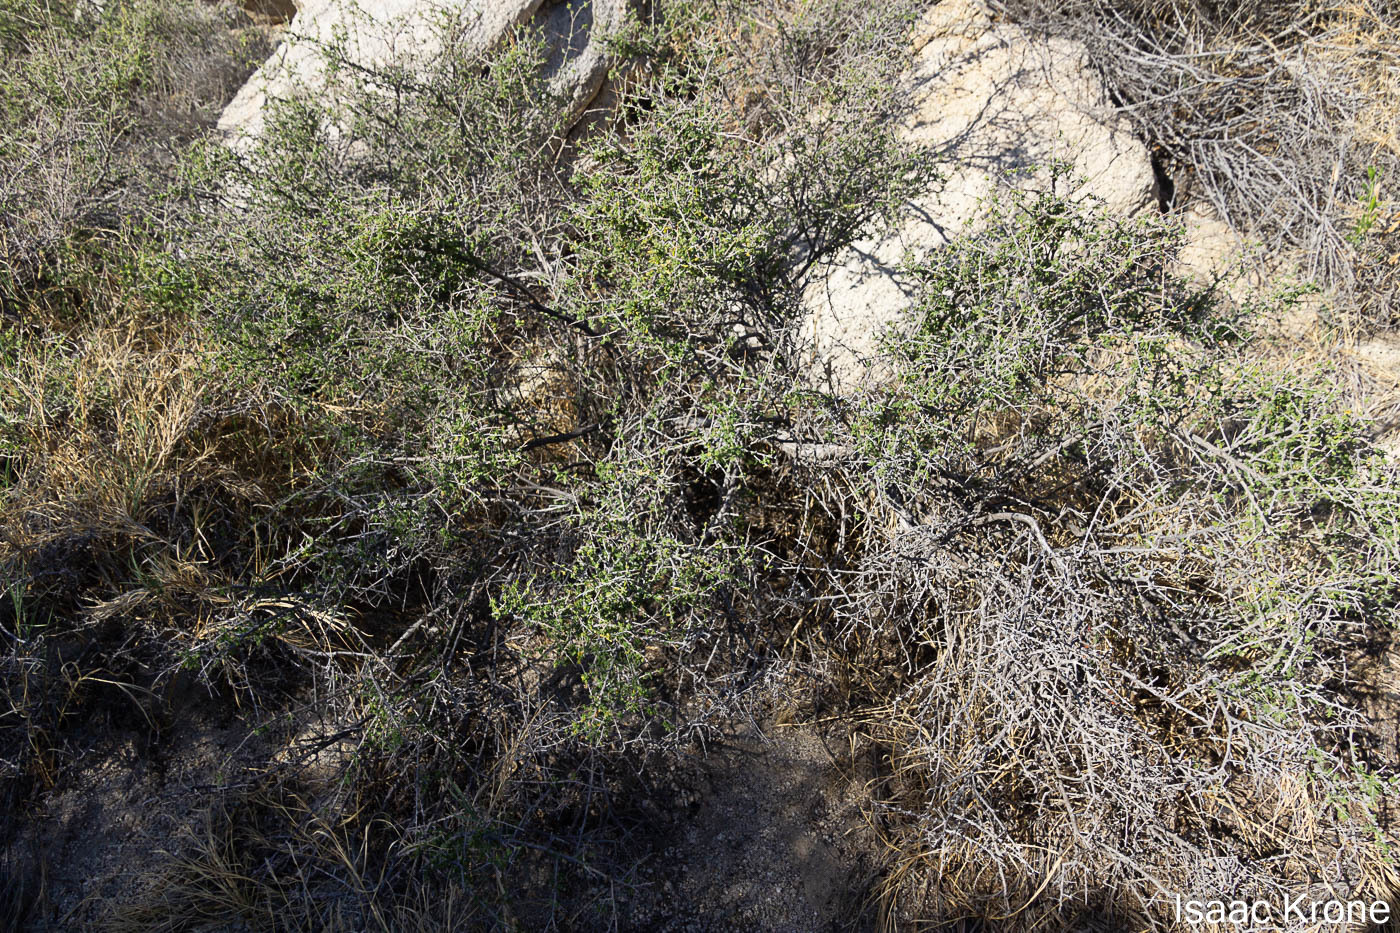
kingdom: Plantae
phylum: Tracheophyta
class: Magnoliopsida
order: Solanales
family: Solanaceae
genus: Lycium
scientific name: Lycium brevipes
